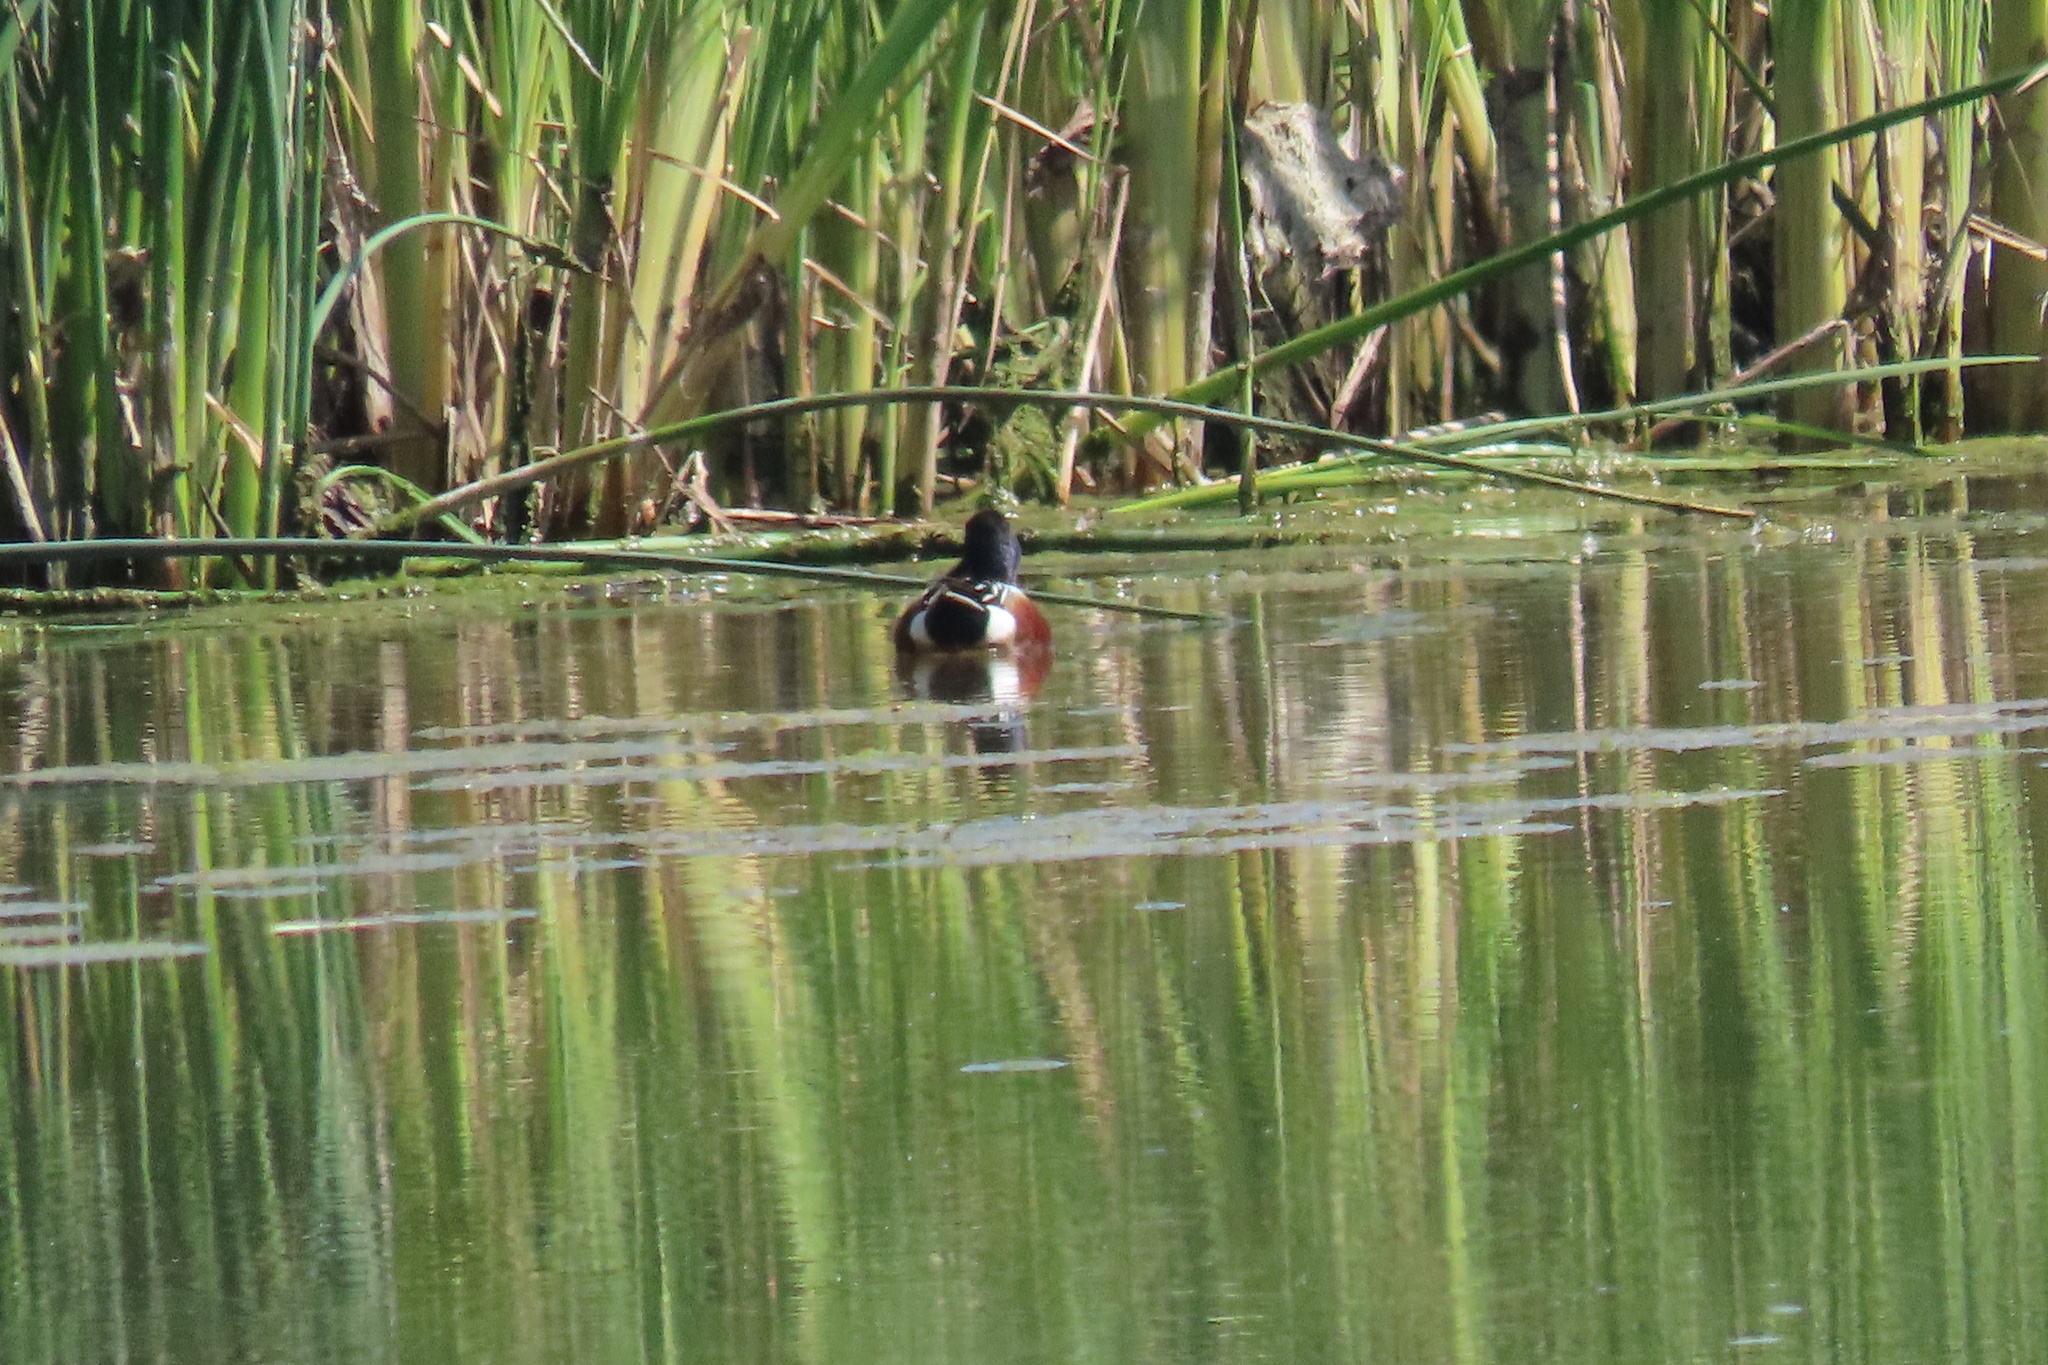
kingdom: Animalia
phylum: Chordata
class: Aves
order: Anseriformes
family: Anatidae
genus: Spatula
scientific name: Spatula clypeata
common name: Northern shoveler
